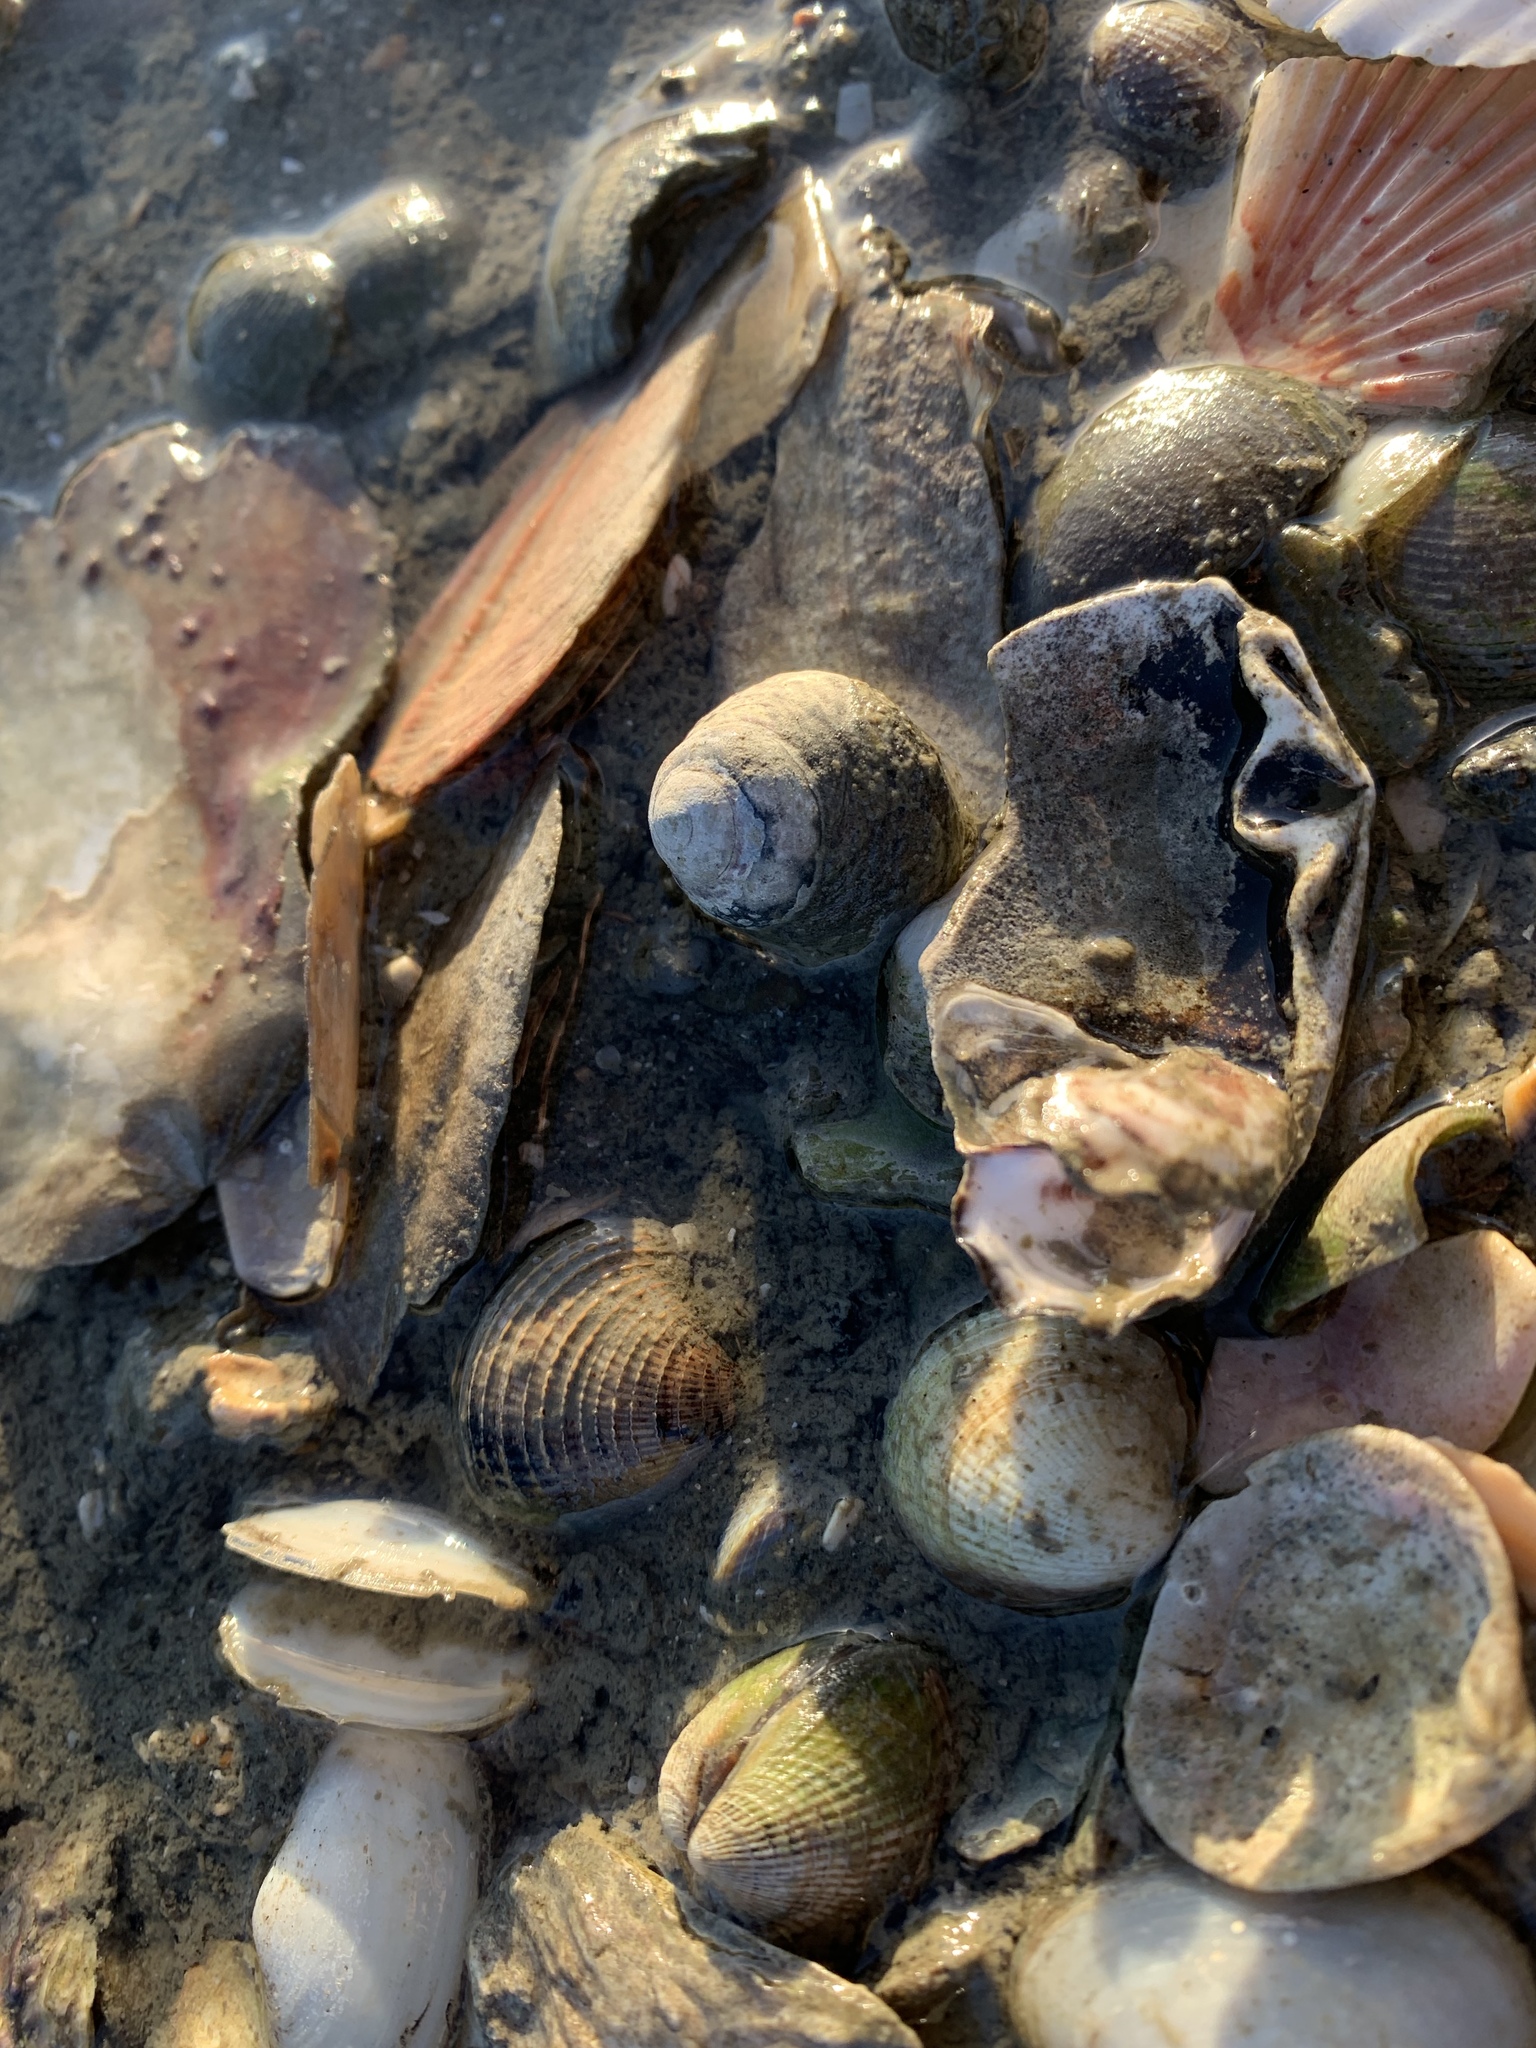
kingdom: Animalia
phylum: Mollusca
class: Gastropoda
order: Trochida
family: Trochidae
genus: Diloma
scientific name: Diloma subrostratum
